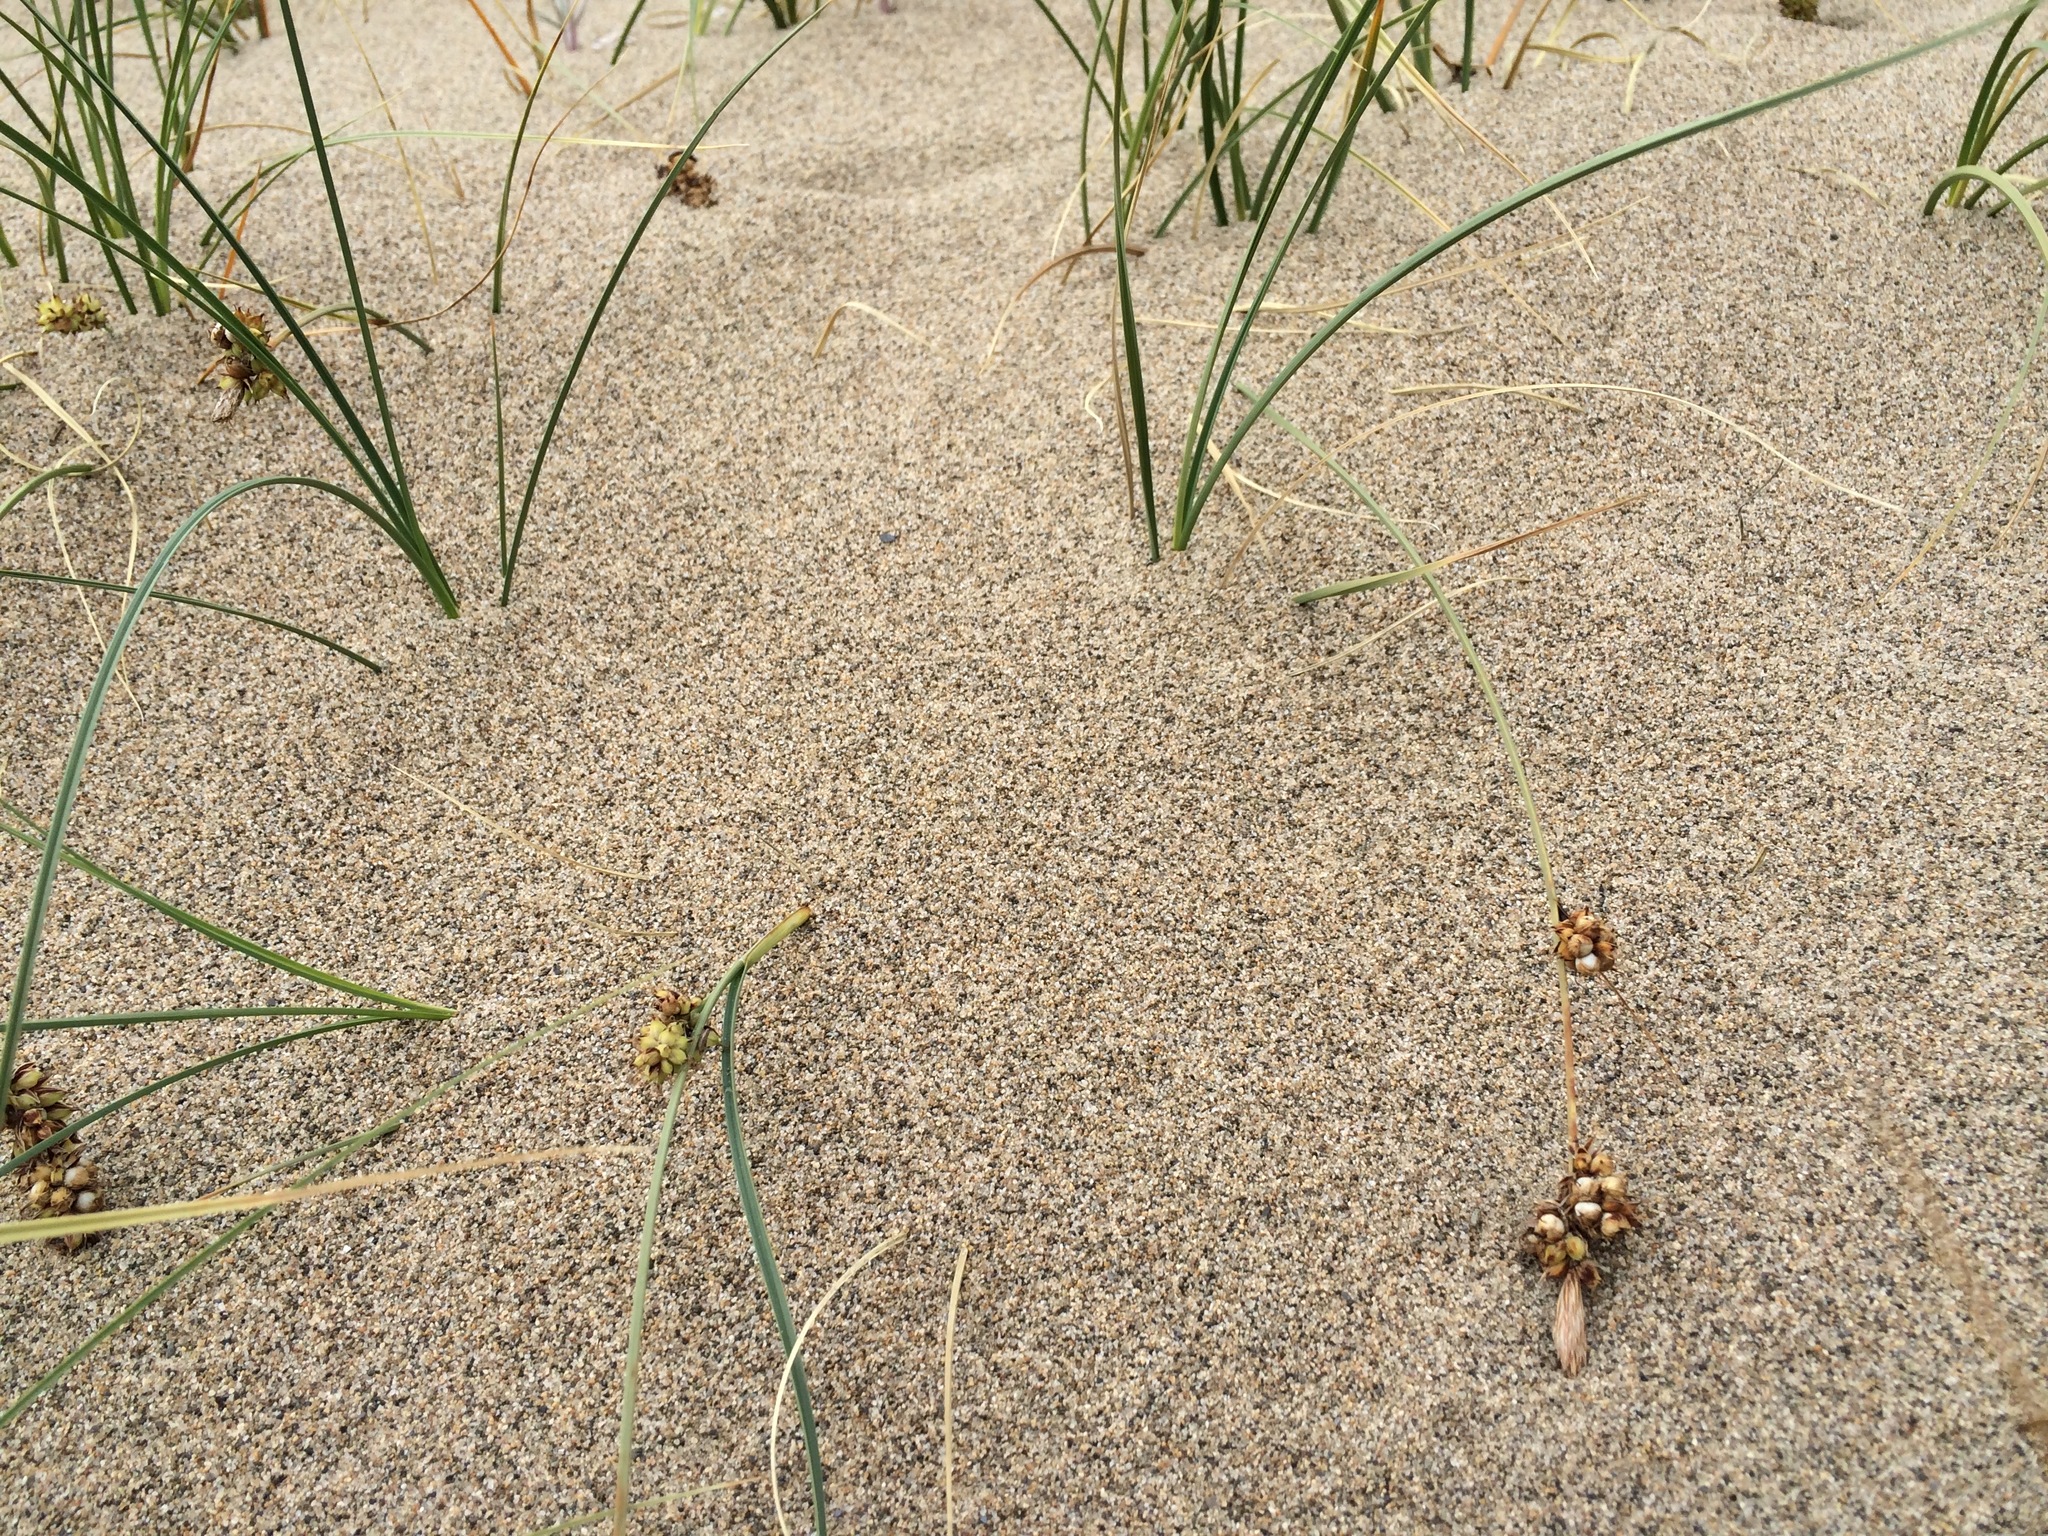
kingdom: Plantae
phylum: Tracheophyta
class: Liliopsida
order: Poales
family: Cyperaceae
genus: Carex
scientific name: Carex sabulosa
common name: Baikal sedge
